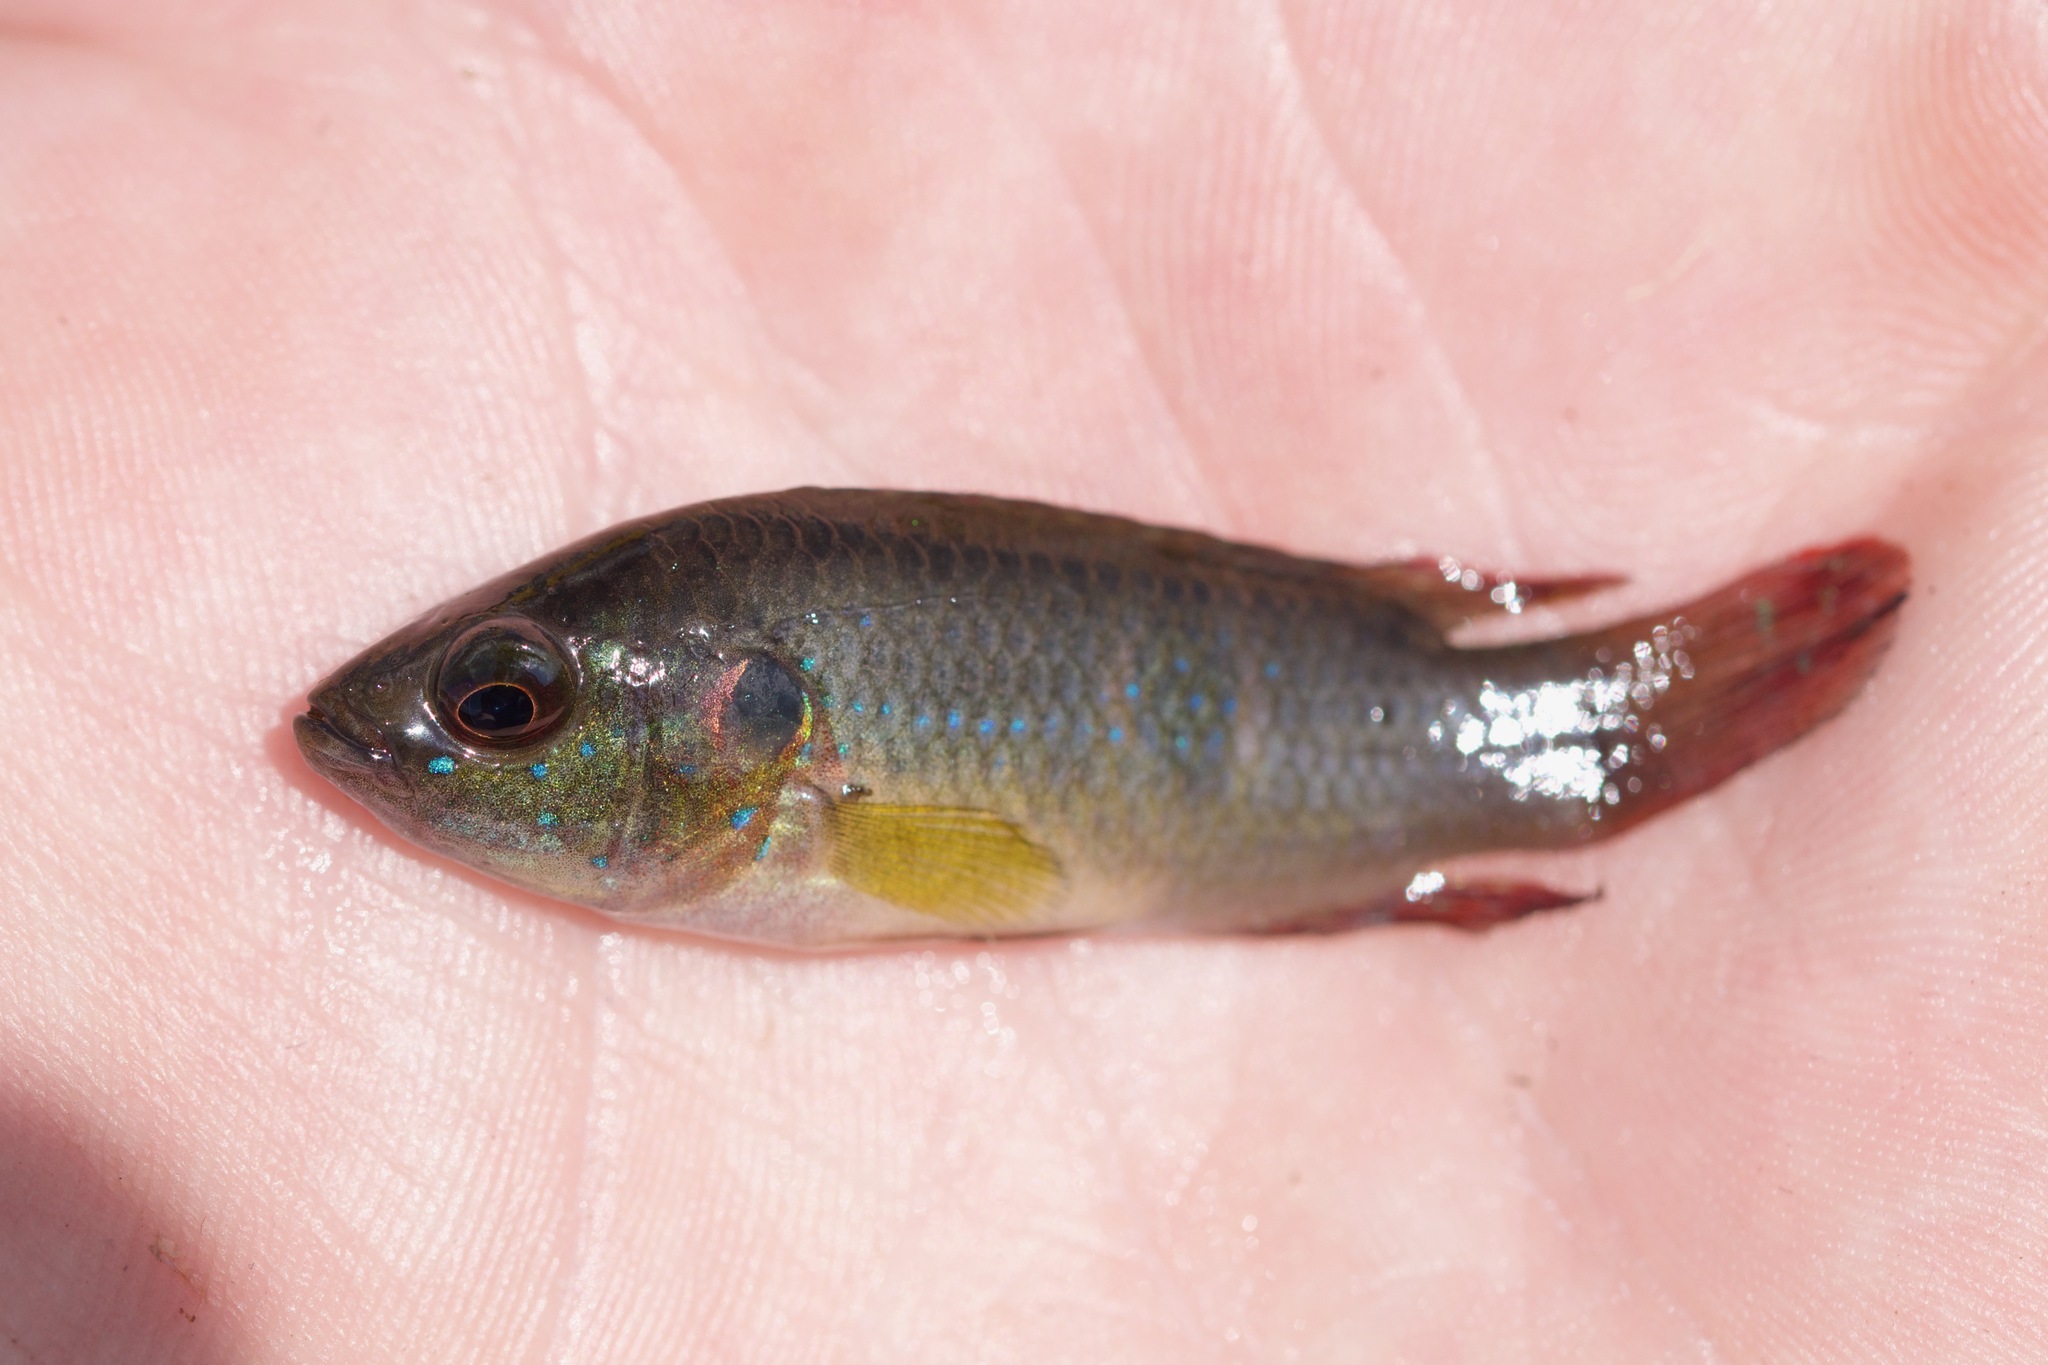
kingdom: Animalia
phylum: Chordata
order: Perciformes
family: Cichlidae
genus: Rubricatochromis
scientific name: Rubricatochromis
